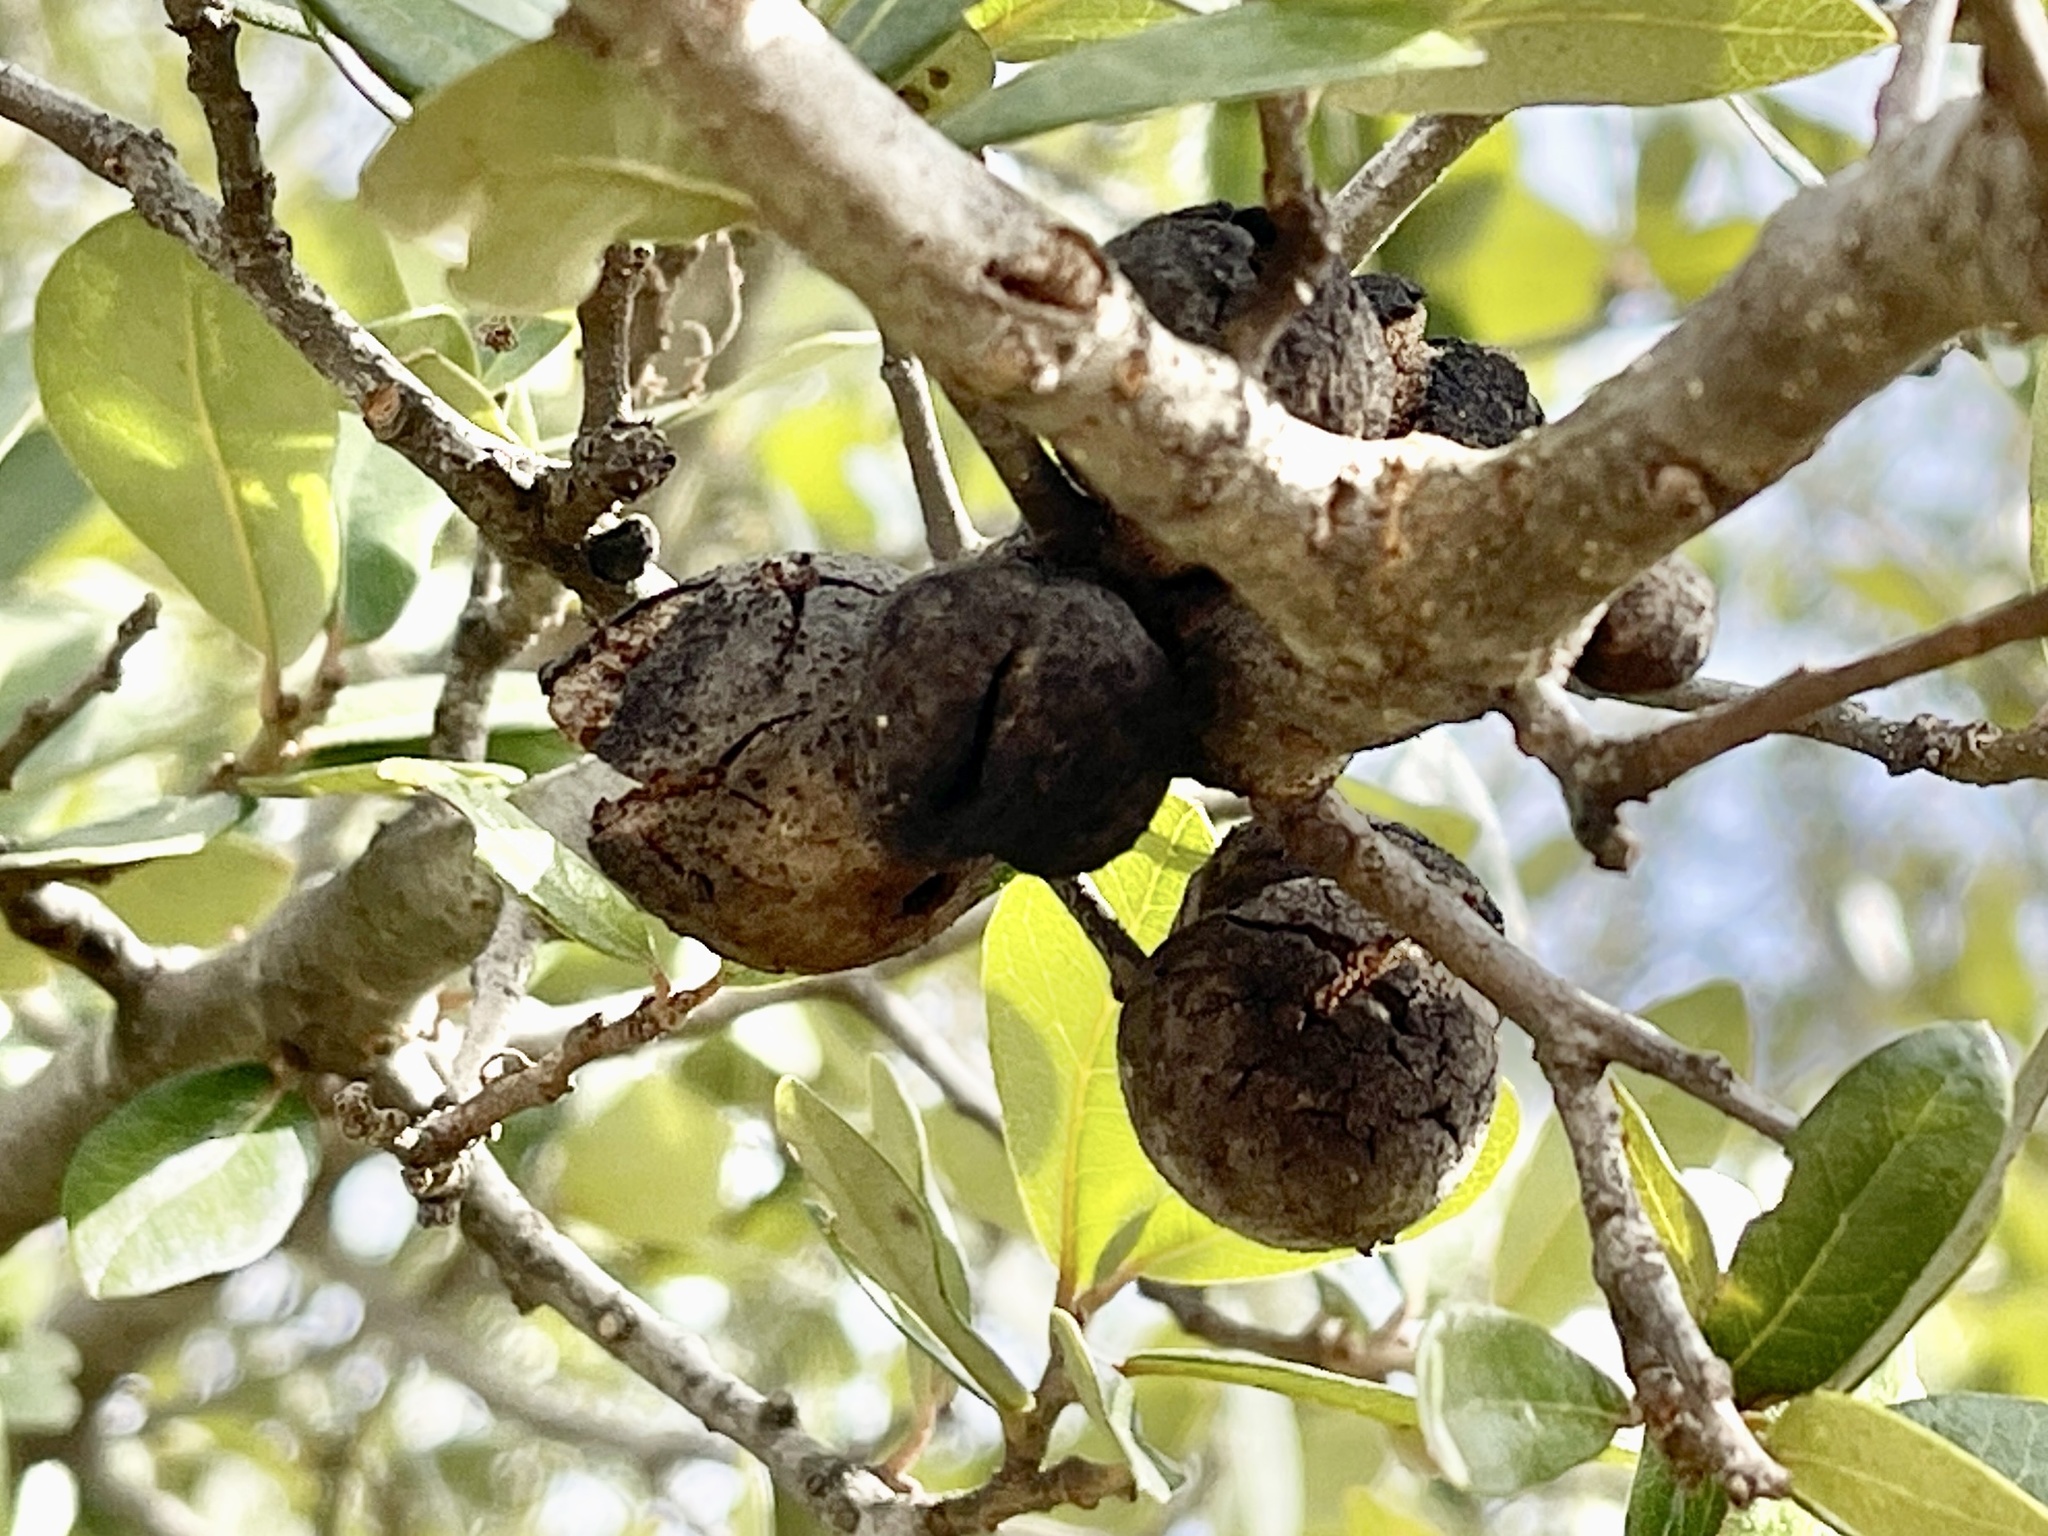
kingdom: Animalia
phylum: Arthropoda
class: Insecta
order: Hymenoptera
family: Cynipidae
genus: Disholcaspis
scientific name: Disholcaspis
